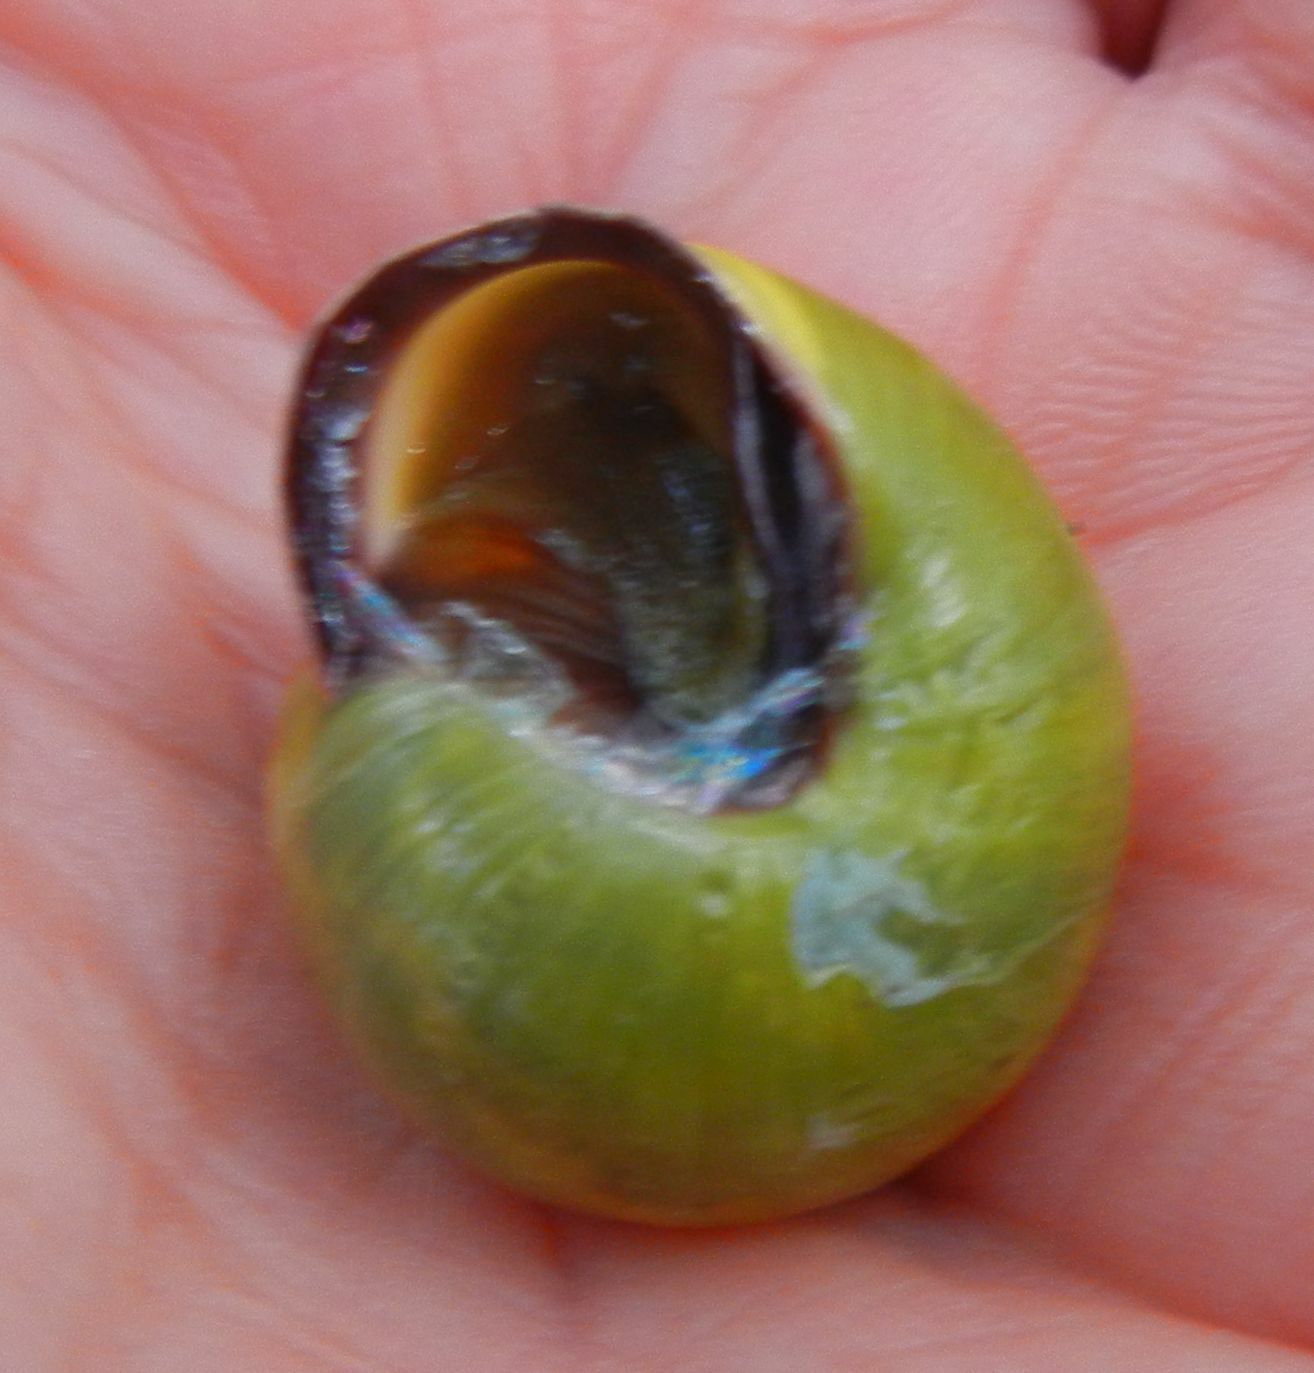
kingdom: Animalia
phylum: Mollusca
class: Gastropoda
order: Stylommatophora
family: Helicidae
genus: Cepaea
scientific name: Cepaea nemoralis
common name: Grovesnail
